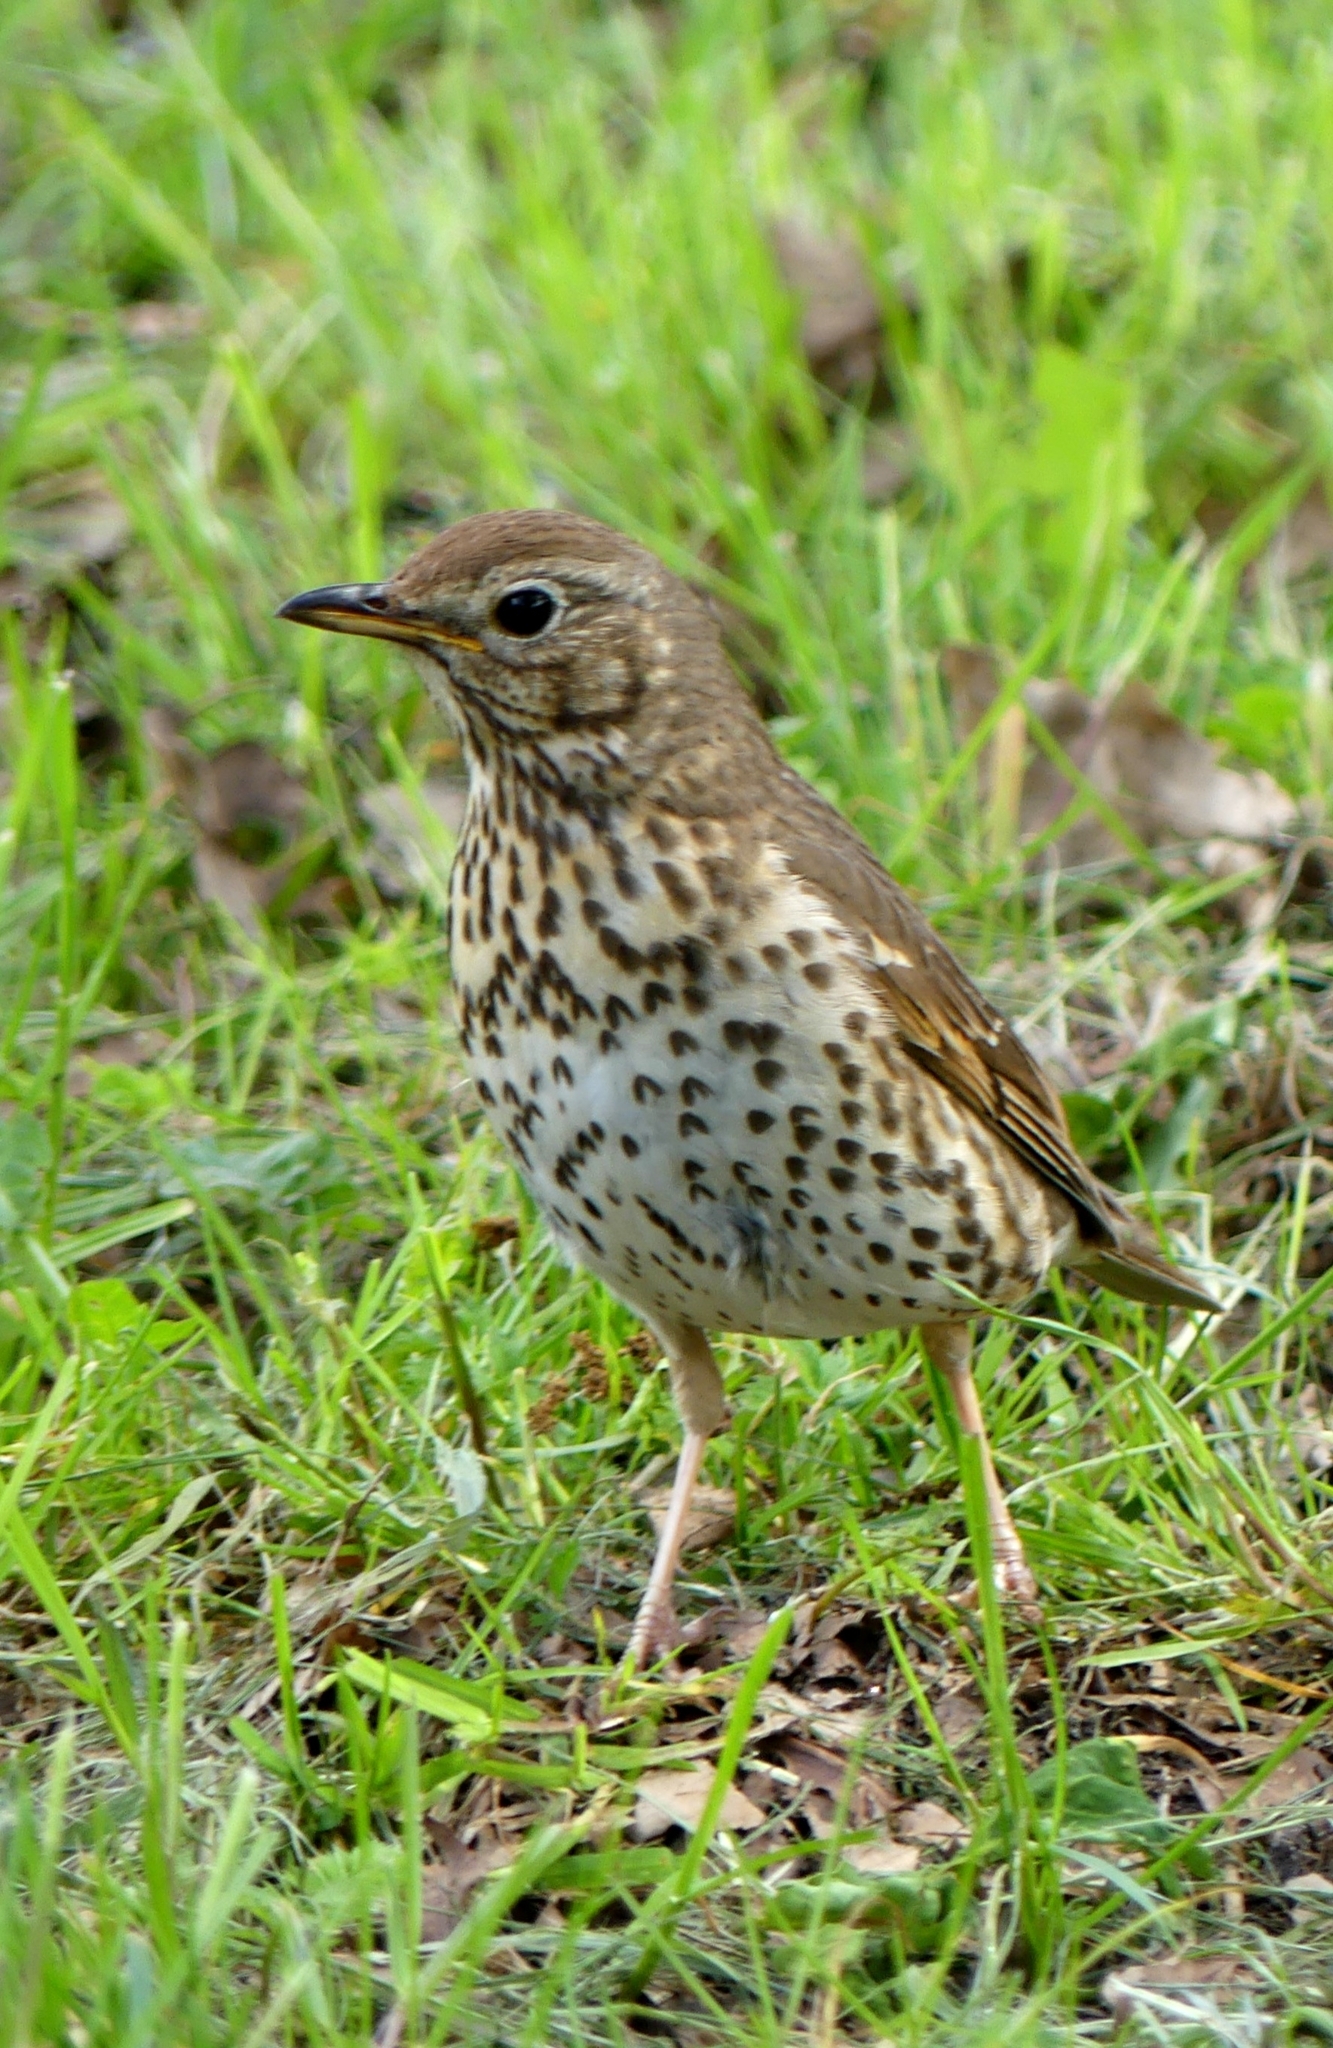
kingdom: Animalia
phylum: Chordata
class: Aves
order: Passeriformes
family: Turdidae
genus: Turdus
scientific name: Turdus philomelos
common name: Song thrush
